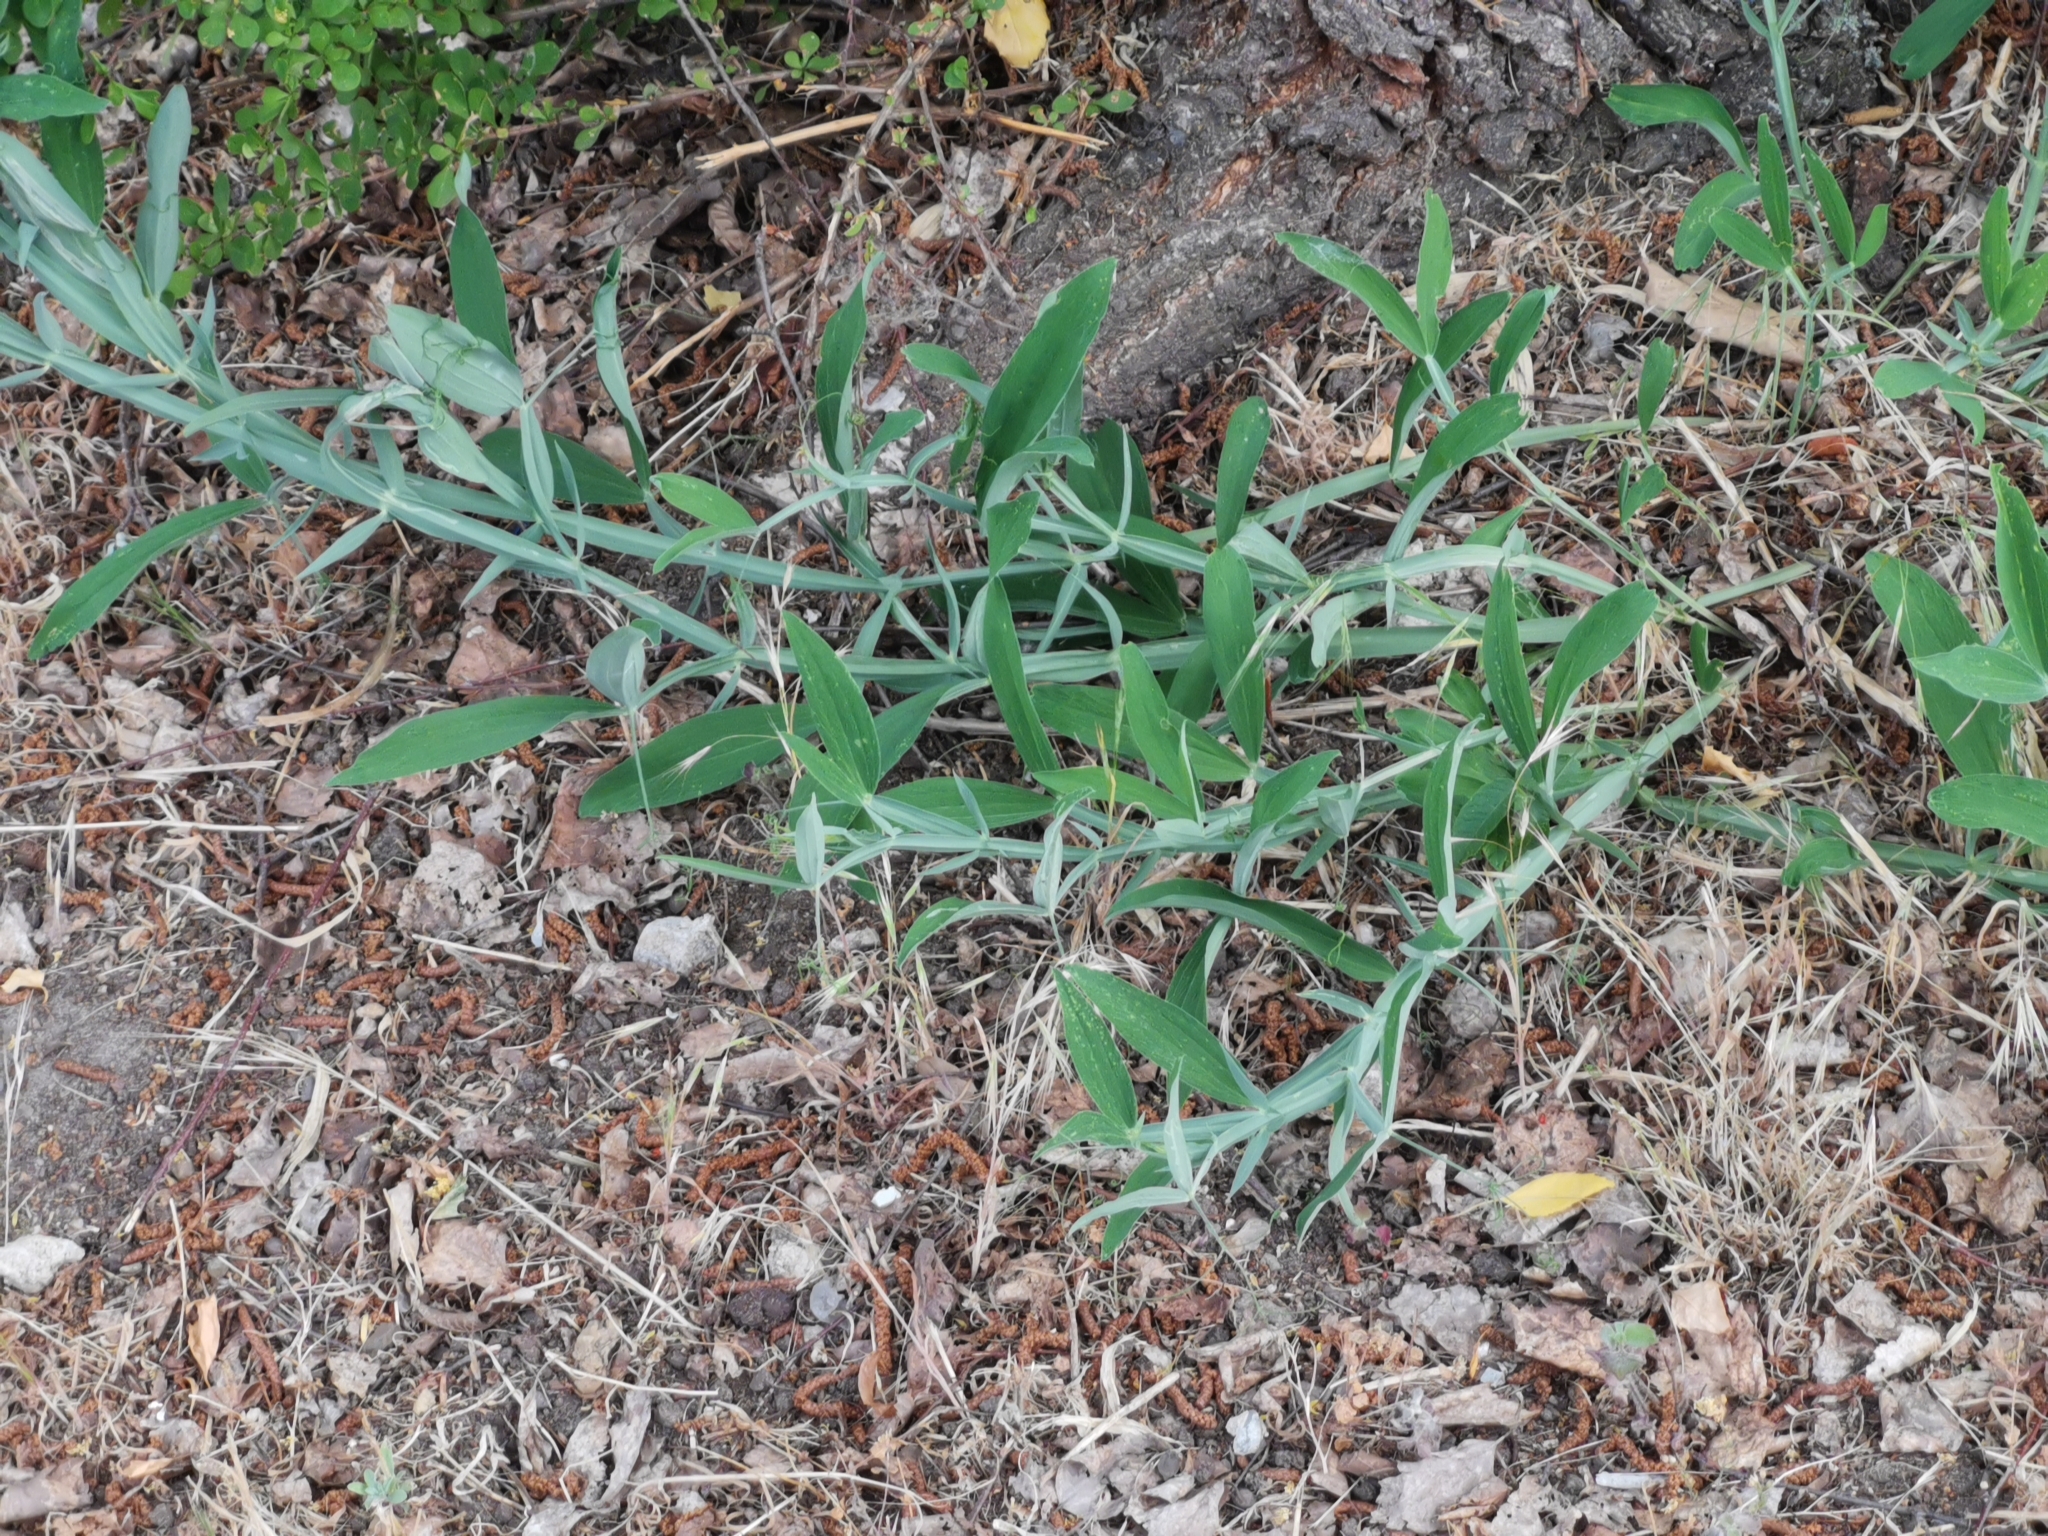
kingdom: Plantae
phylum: Tracheophyta
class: Magnoliopsida
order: Fabales
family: Fabaceae
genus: Lathyrus
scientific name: Lathyrus latifolius
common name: Perennial pea
